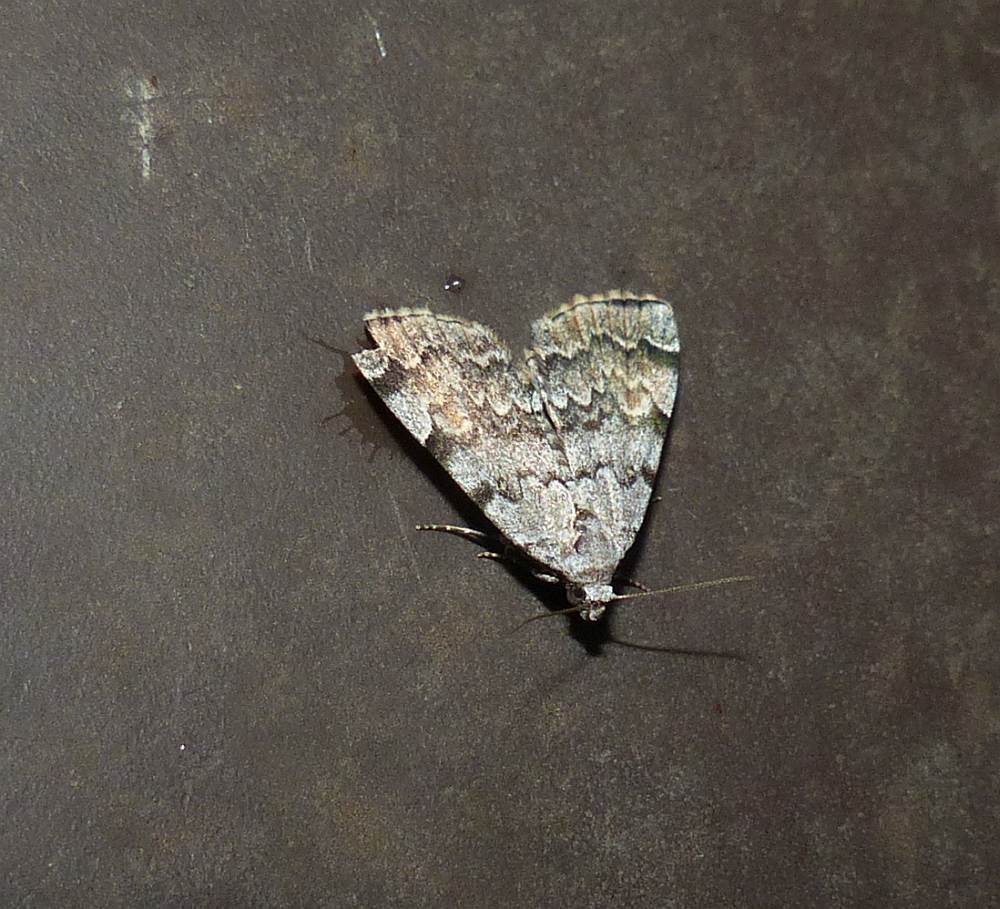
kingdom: Animalia
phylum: Arthropoda
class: Insecta
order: Lepidoptera
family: Erebidae
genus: Idia
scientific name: Idia americalis
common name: American idia moth
